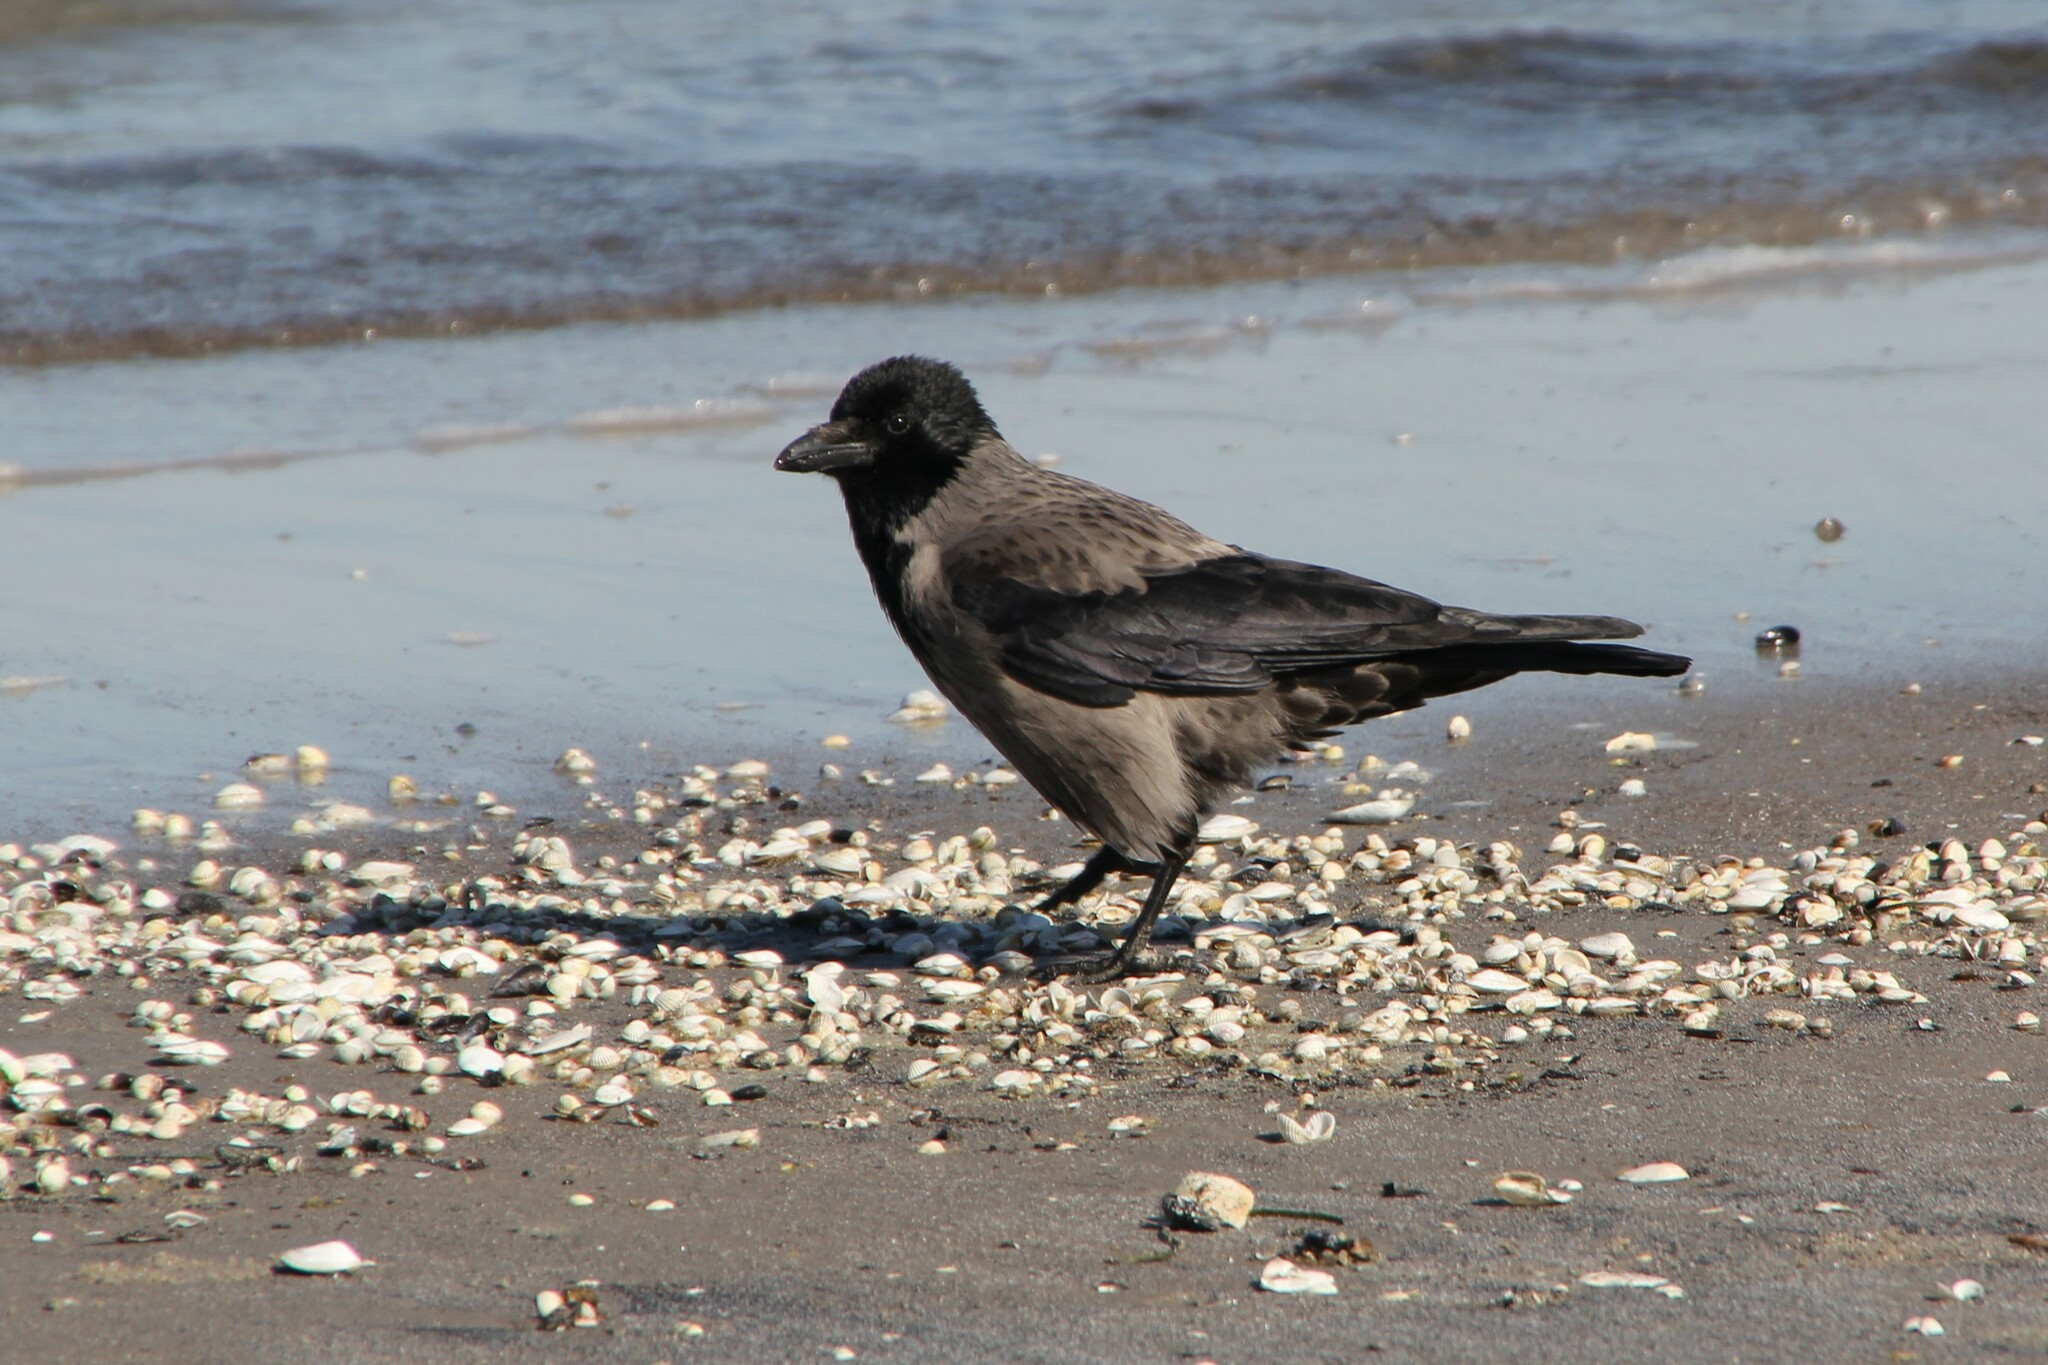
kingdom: Animalia
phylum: Chordata
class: Aves
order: Passeriformes
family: Corvidae
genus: Corvus
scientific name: Corvus
